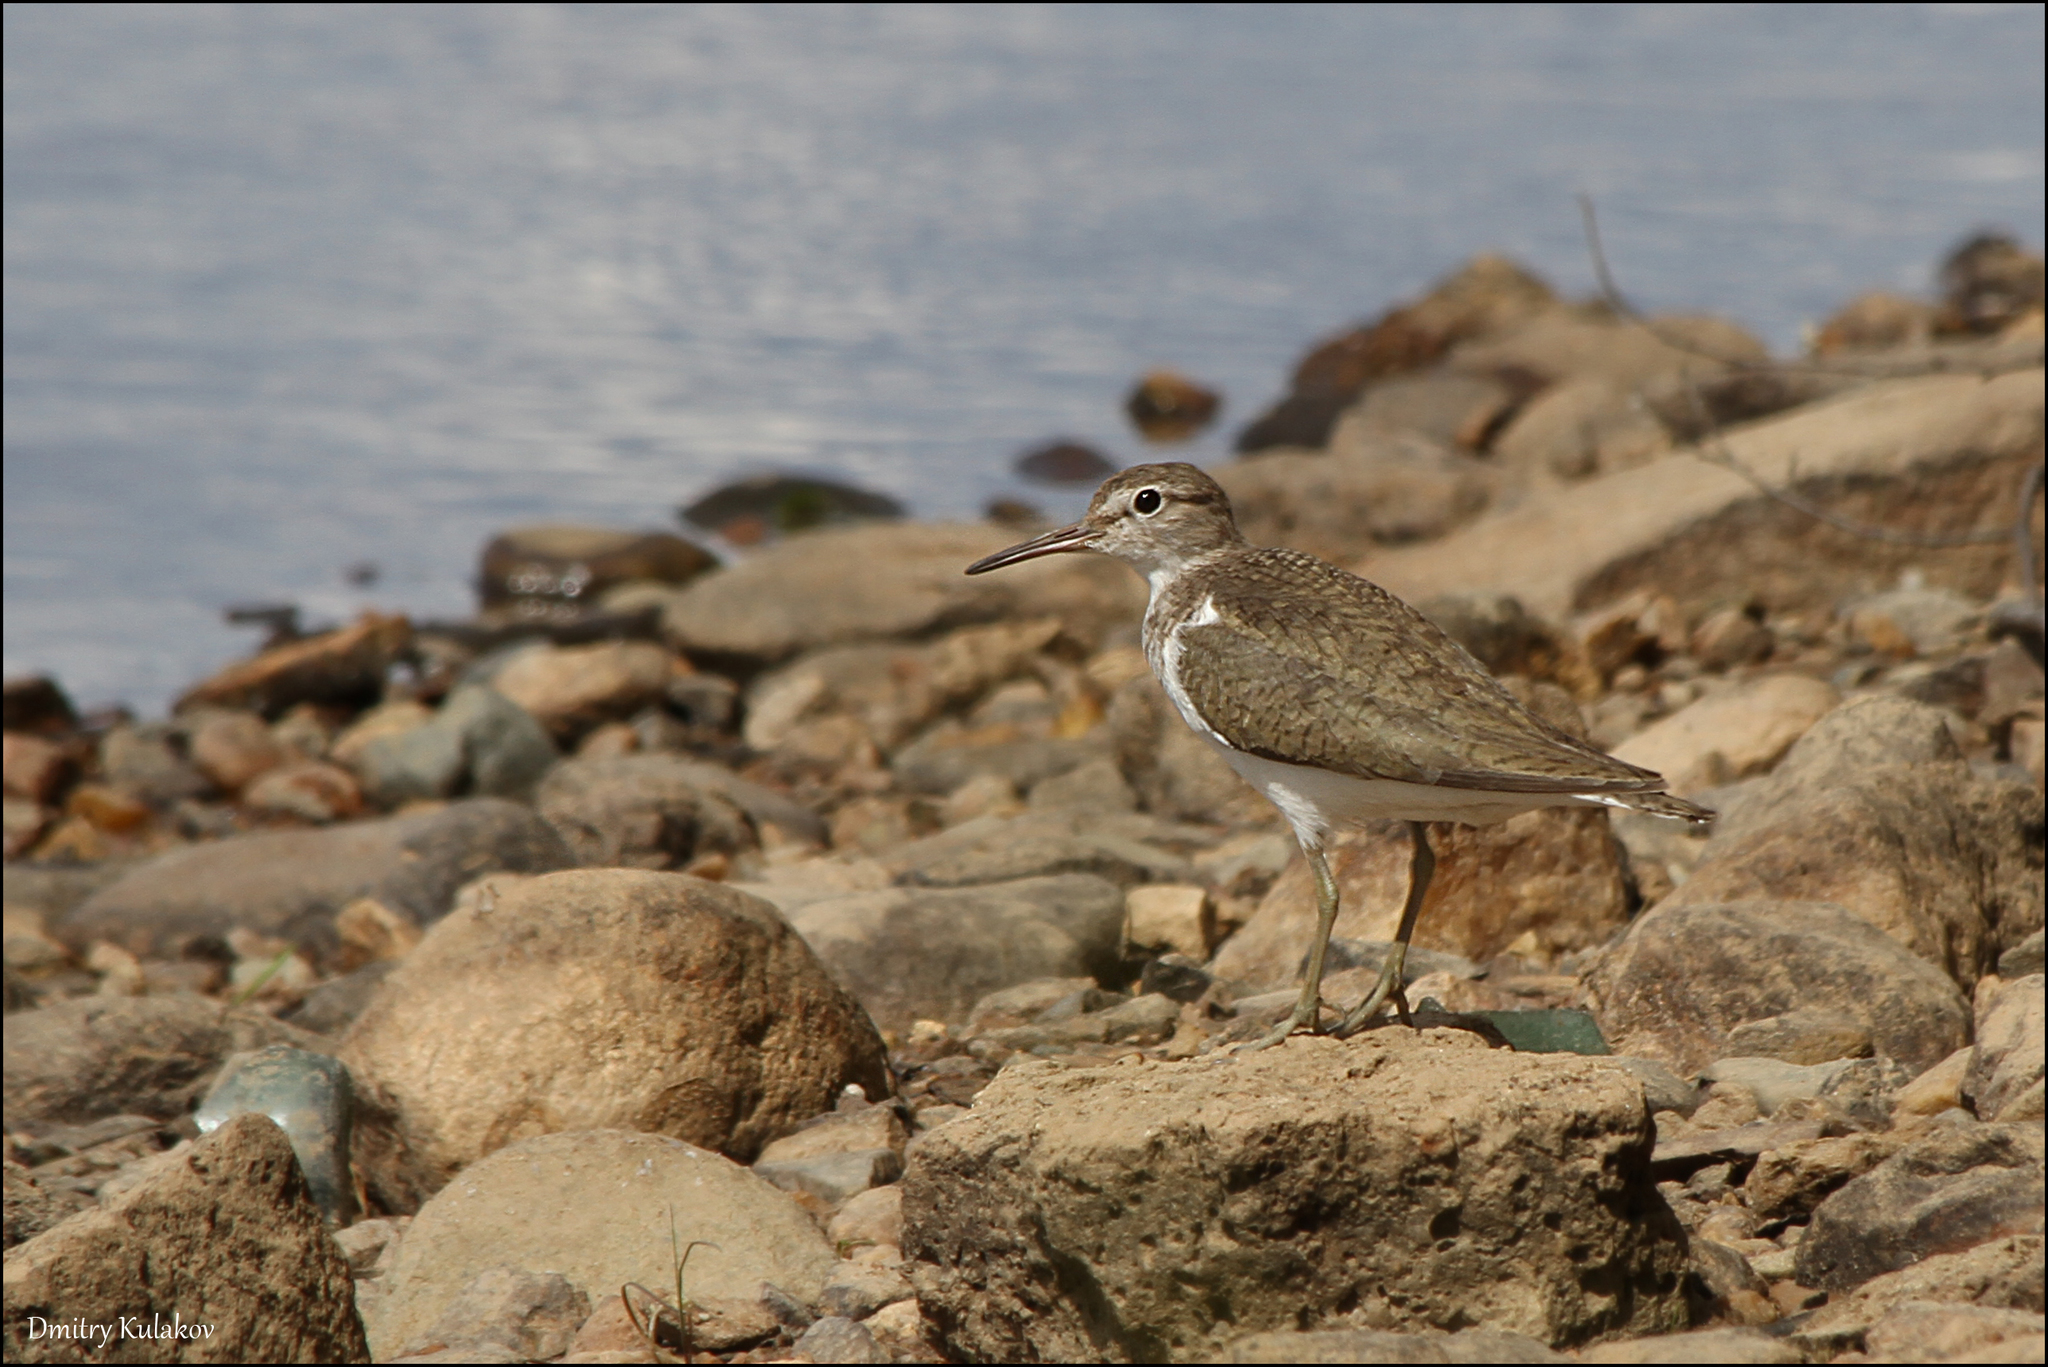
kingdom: Animalia
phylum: Chordata
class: Aves
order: Charadriiformes
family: Scolopacidae
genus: Actitis
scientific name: Actitis hypoleucos
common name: Common sandpiper
